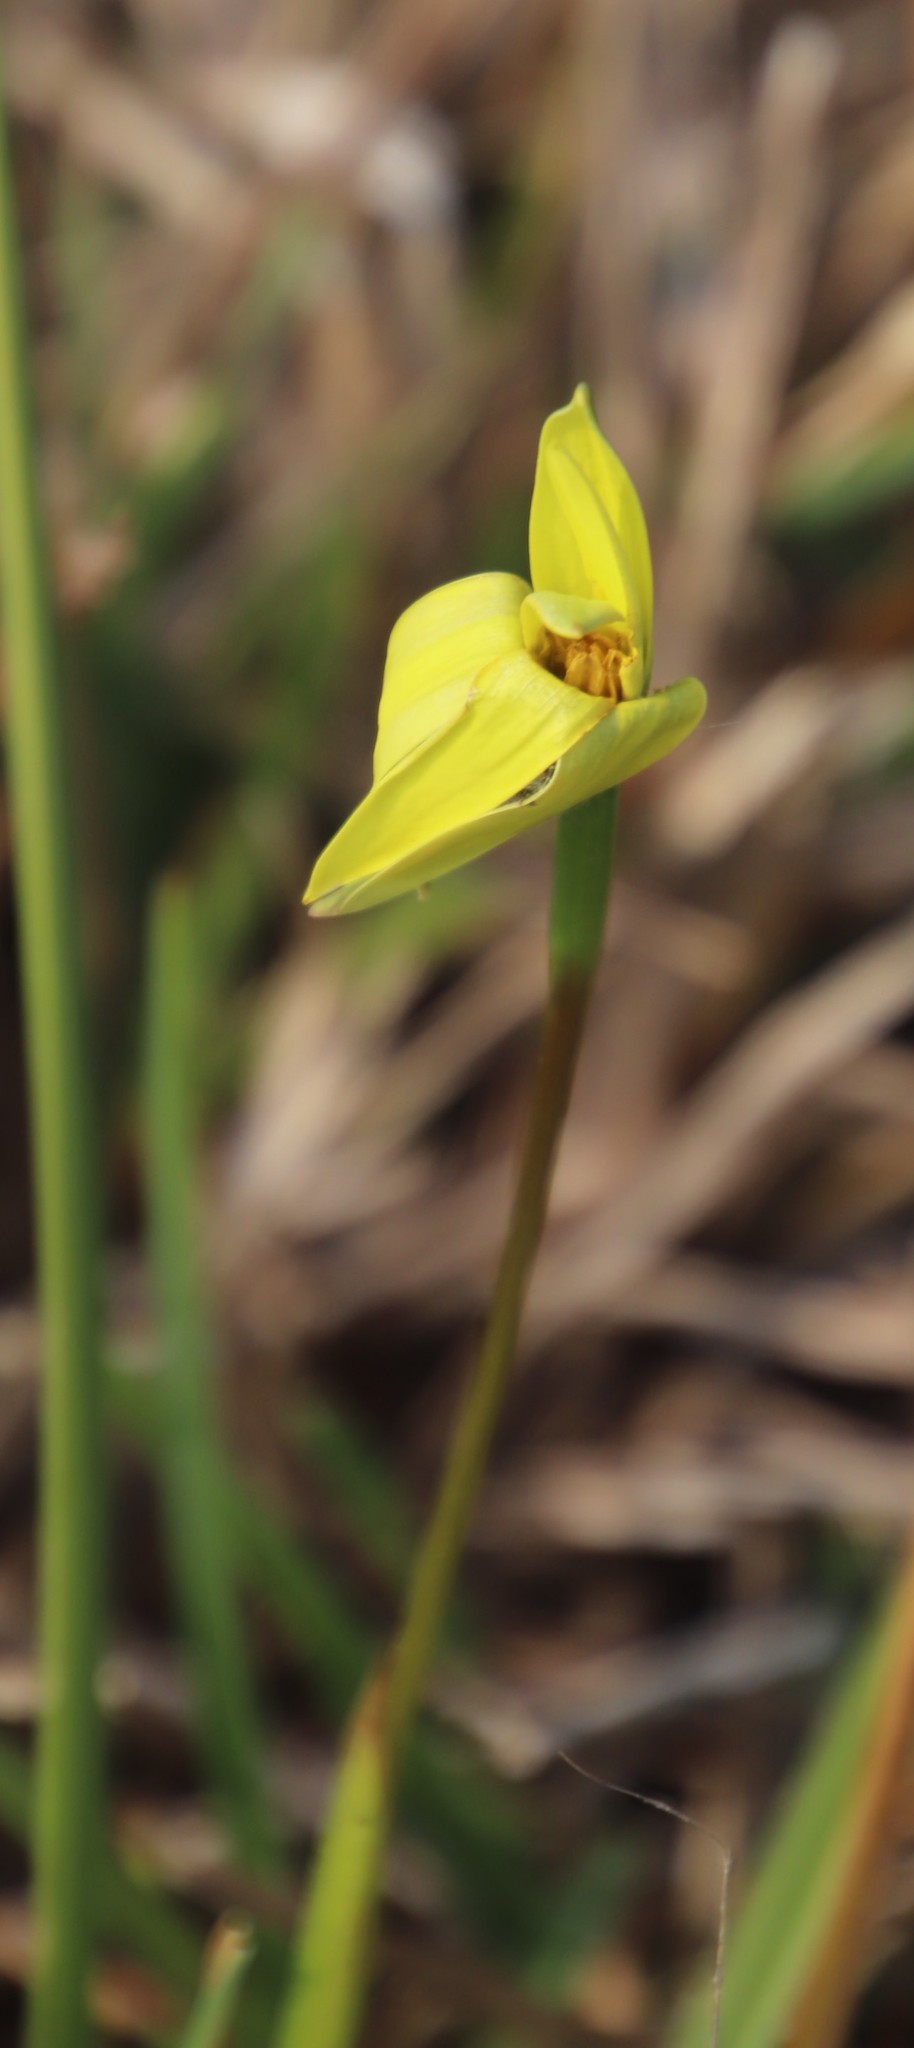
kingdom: Plantae
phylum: Tracheophyta
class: Liliopsida
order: Asparagales
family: Hypoxidaceae
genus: Pauridia
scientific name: Pauridia capensis
